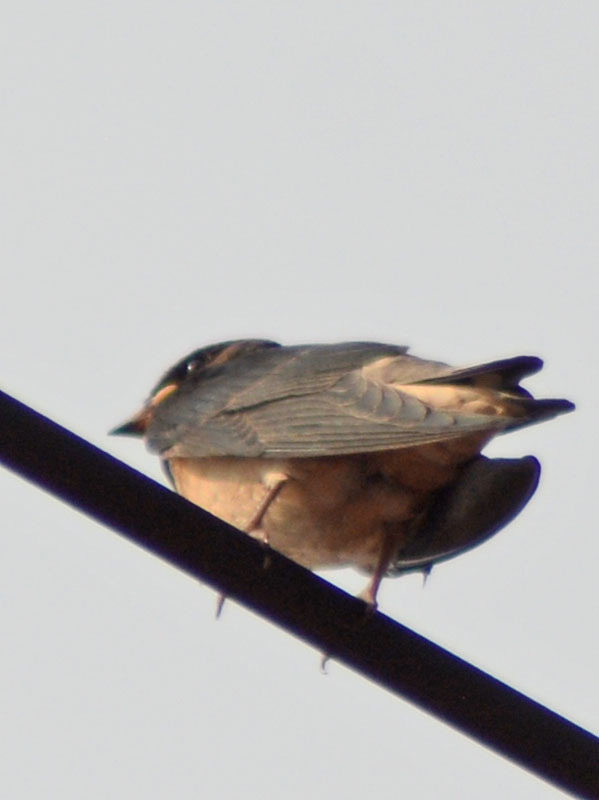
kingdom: Animalia
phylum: Chordata
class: Aves
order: Passeriformes
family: Hirundinidae
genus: Hirundo
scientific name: Hirundo rustica
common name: Barn swallow
